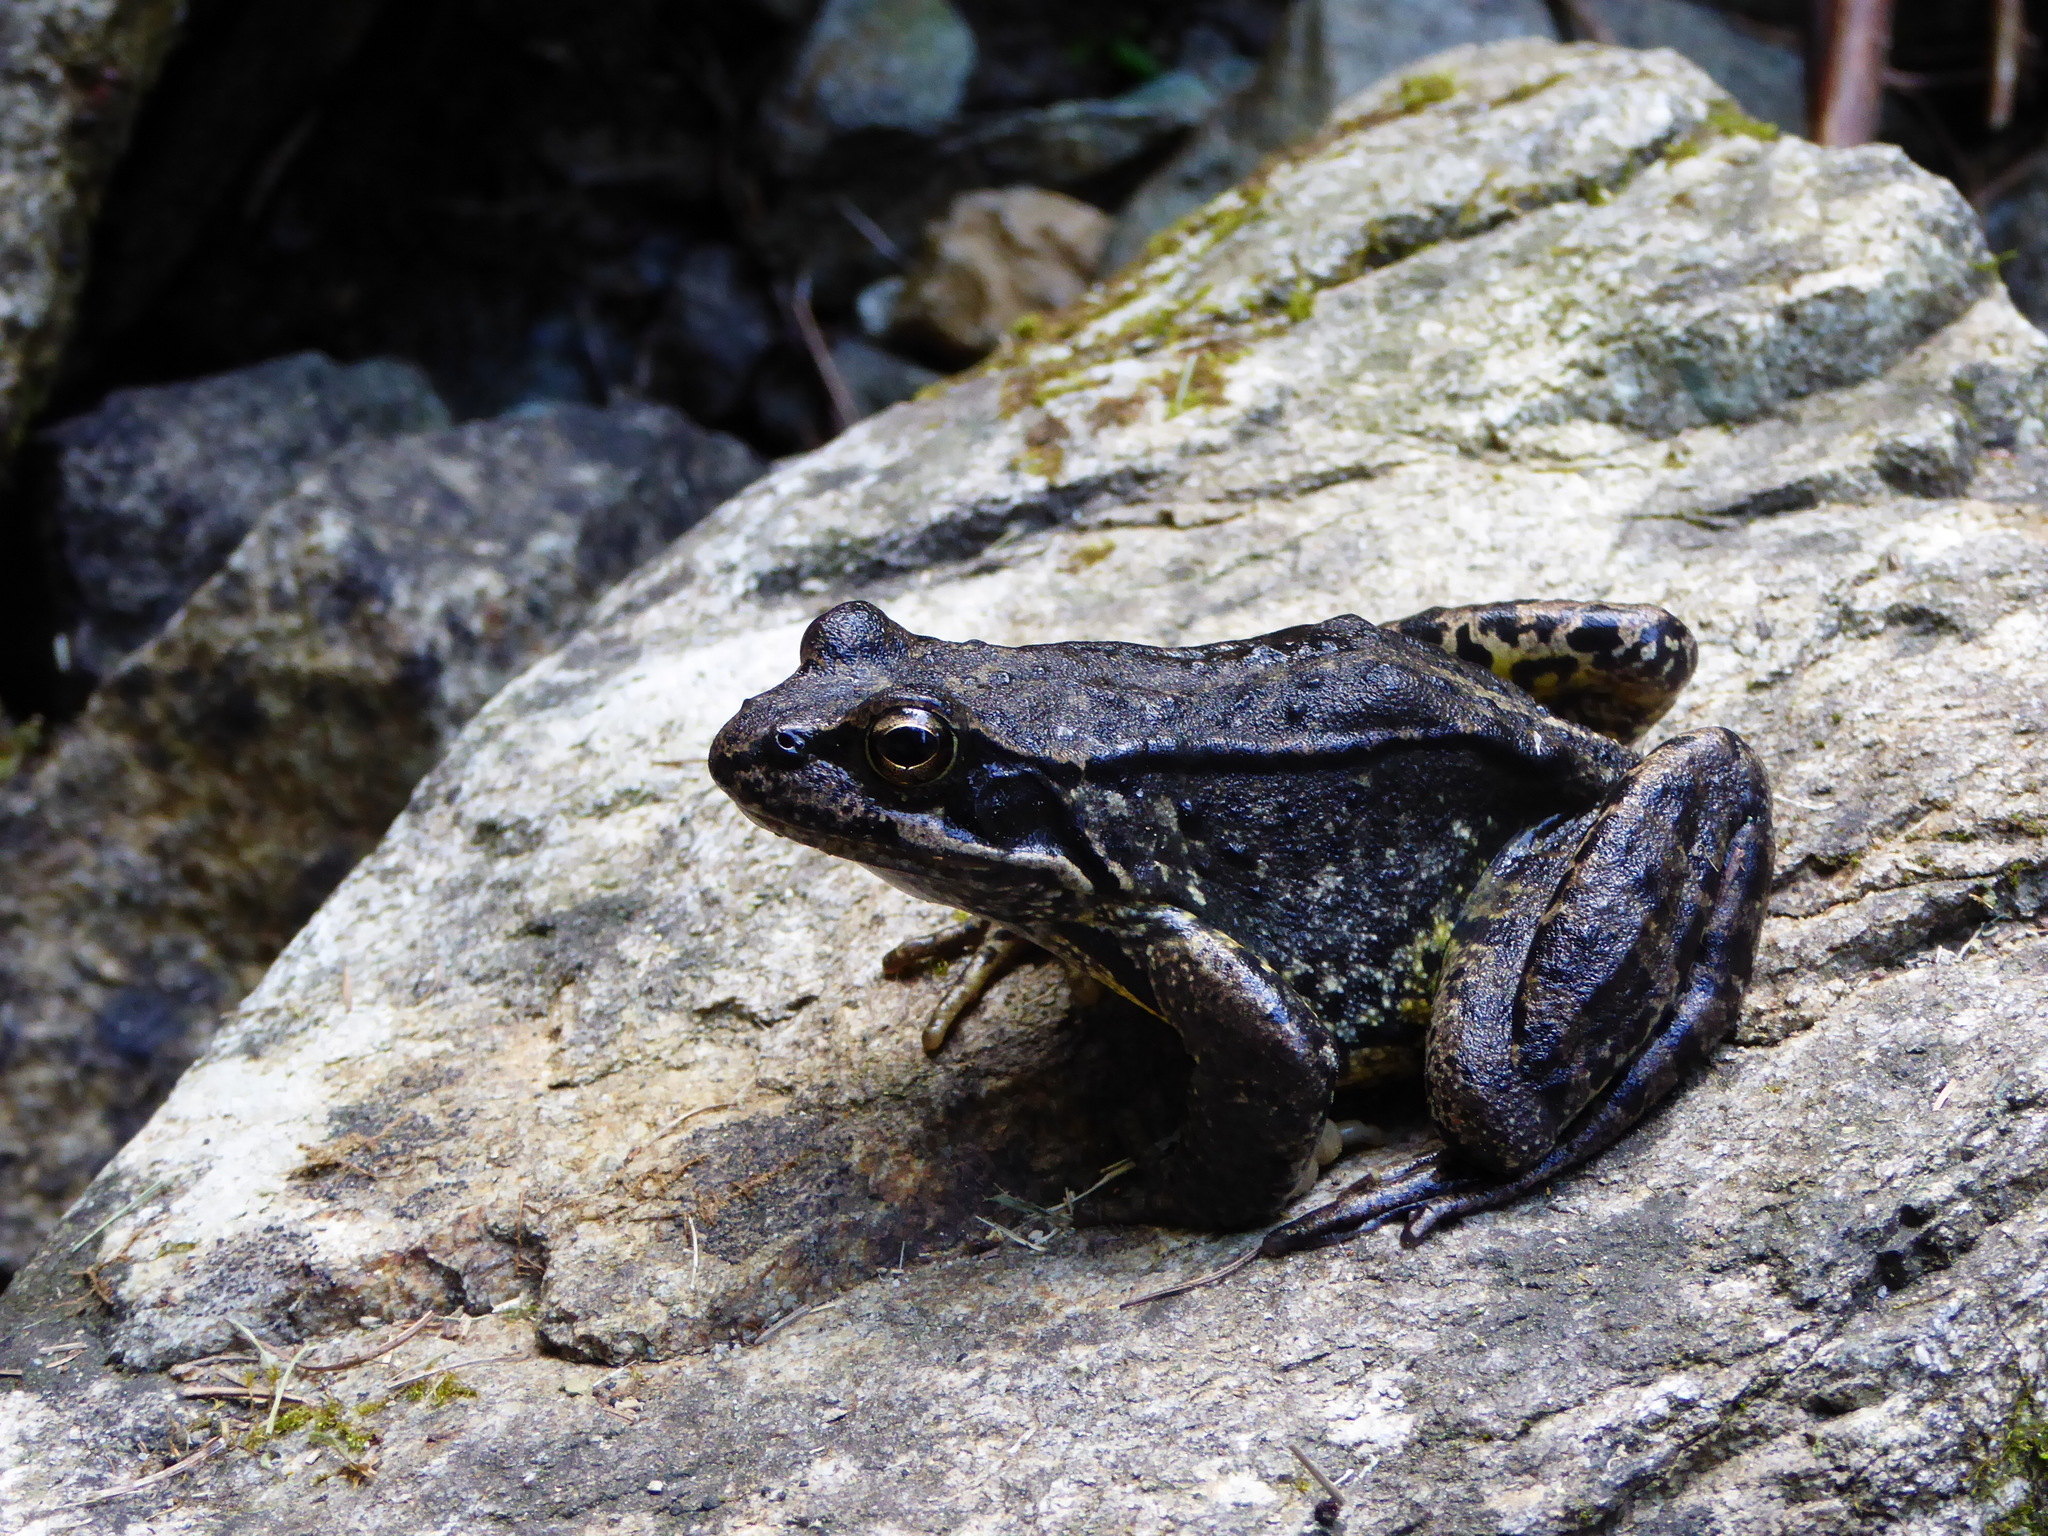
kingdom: Animalia
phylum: Chordata
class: Amphibia
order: Anura
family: Ranidae
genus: Rana
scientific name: Rana temporaria
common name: Common frog
